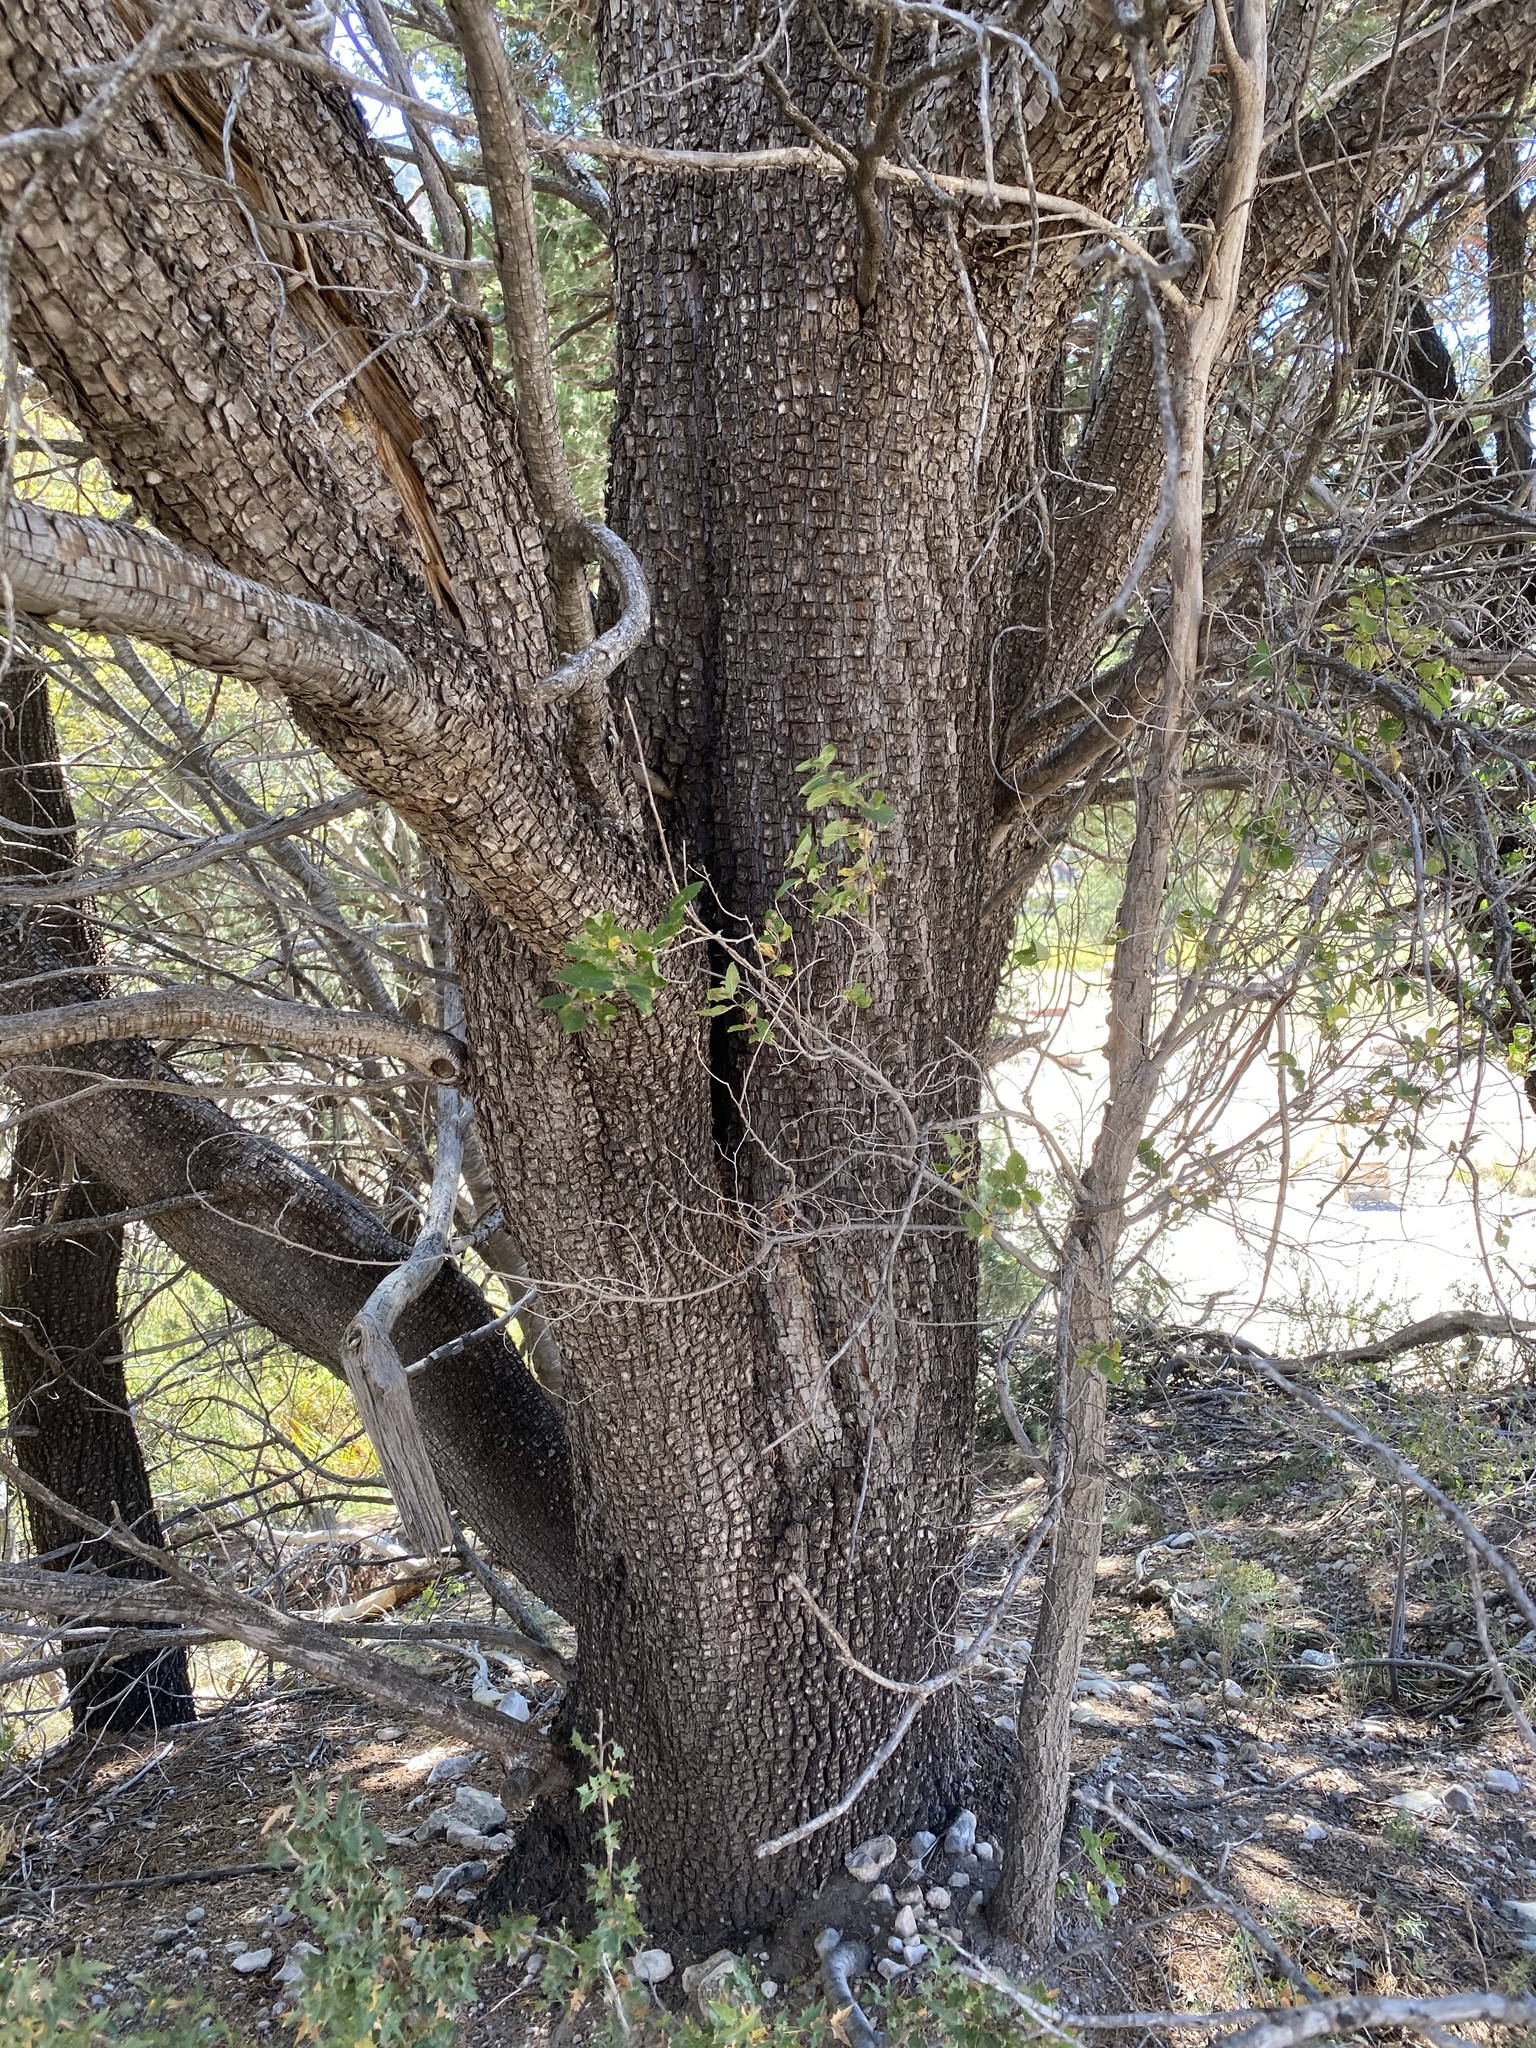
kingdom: Plantae
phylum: Tracheophyta
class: Pinopsida
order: Pinales
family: Cupressaceae
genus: Juniperus
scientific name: Juniperus deppeana
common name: Alligator juniper
